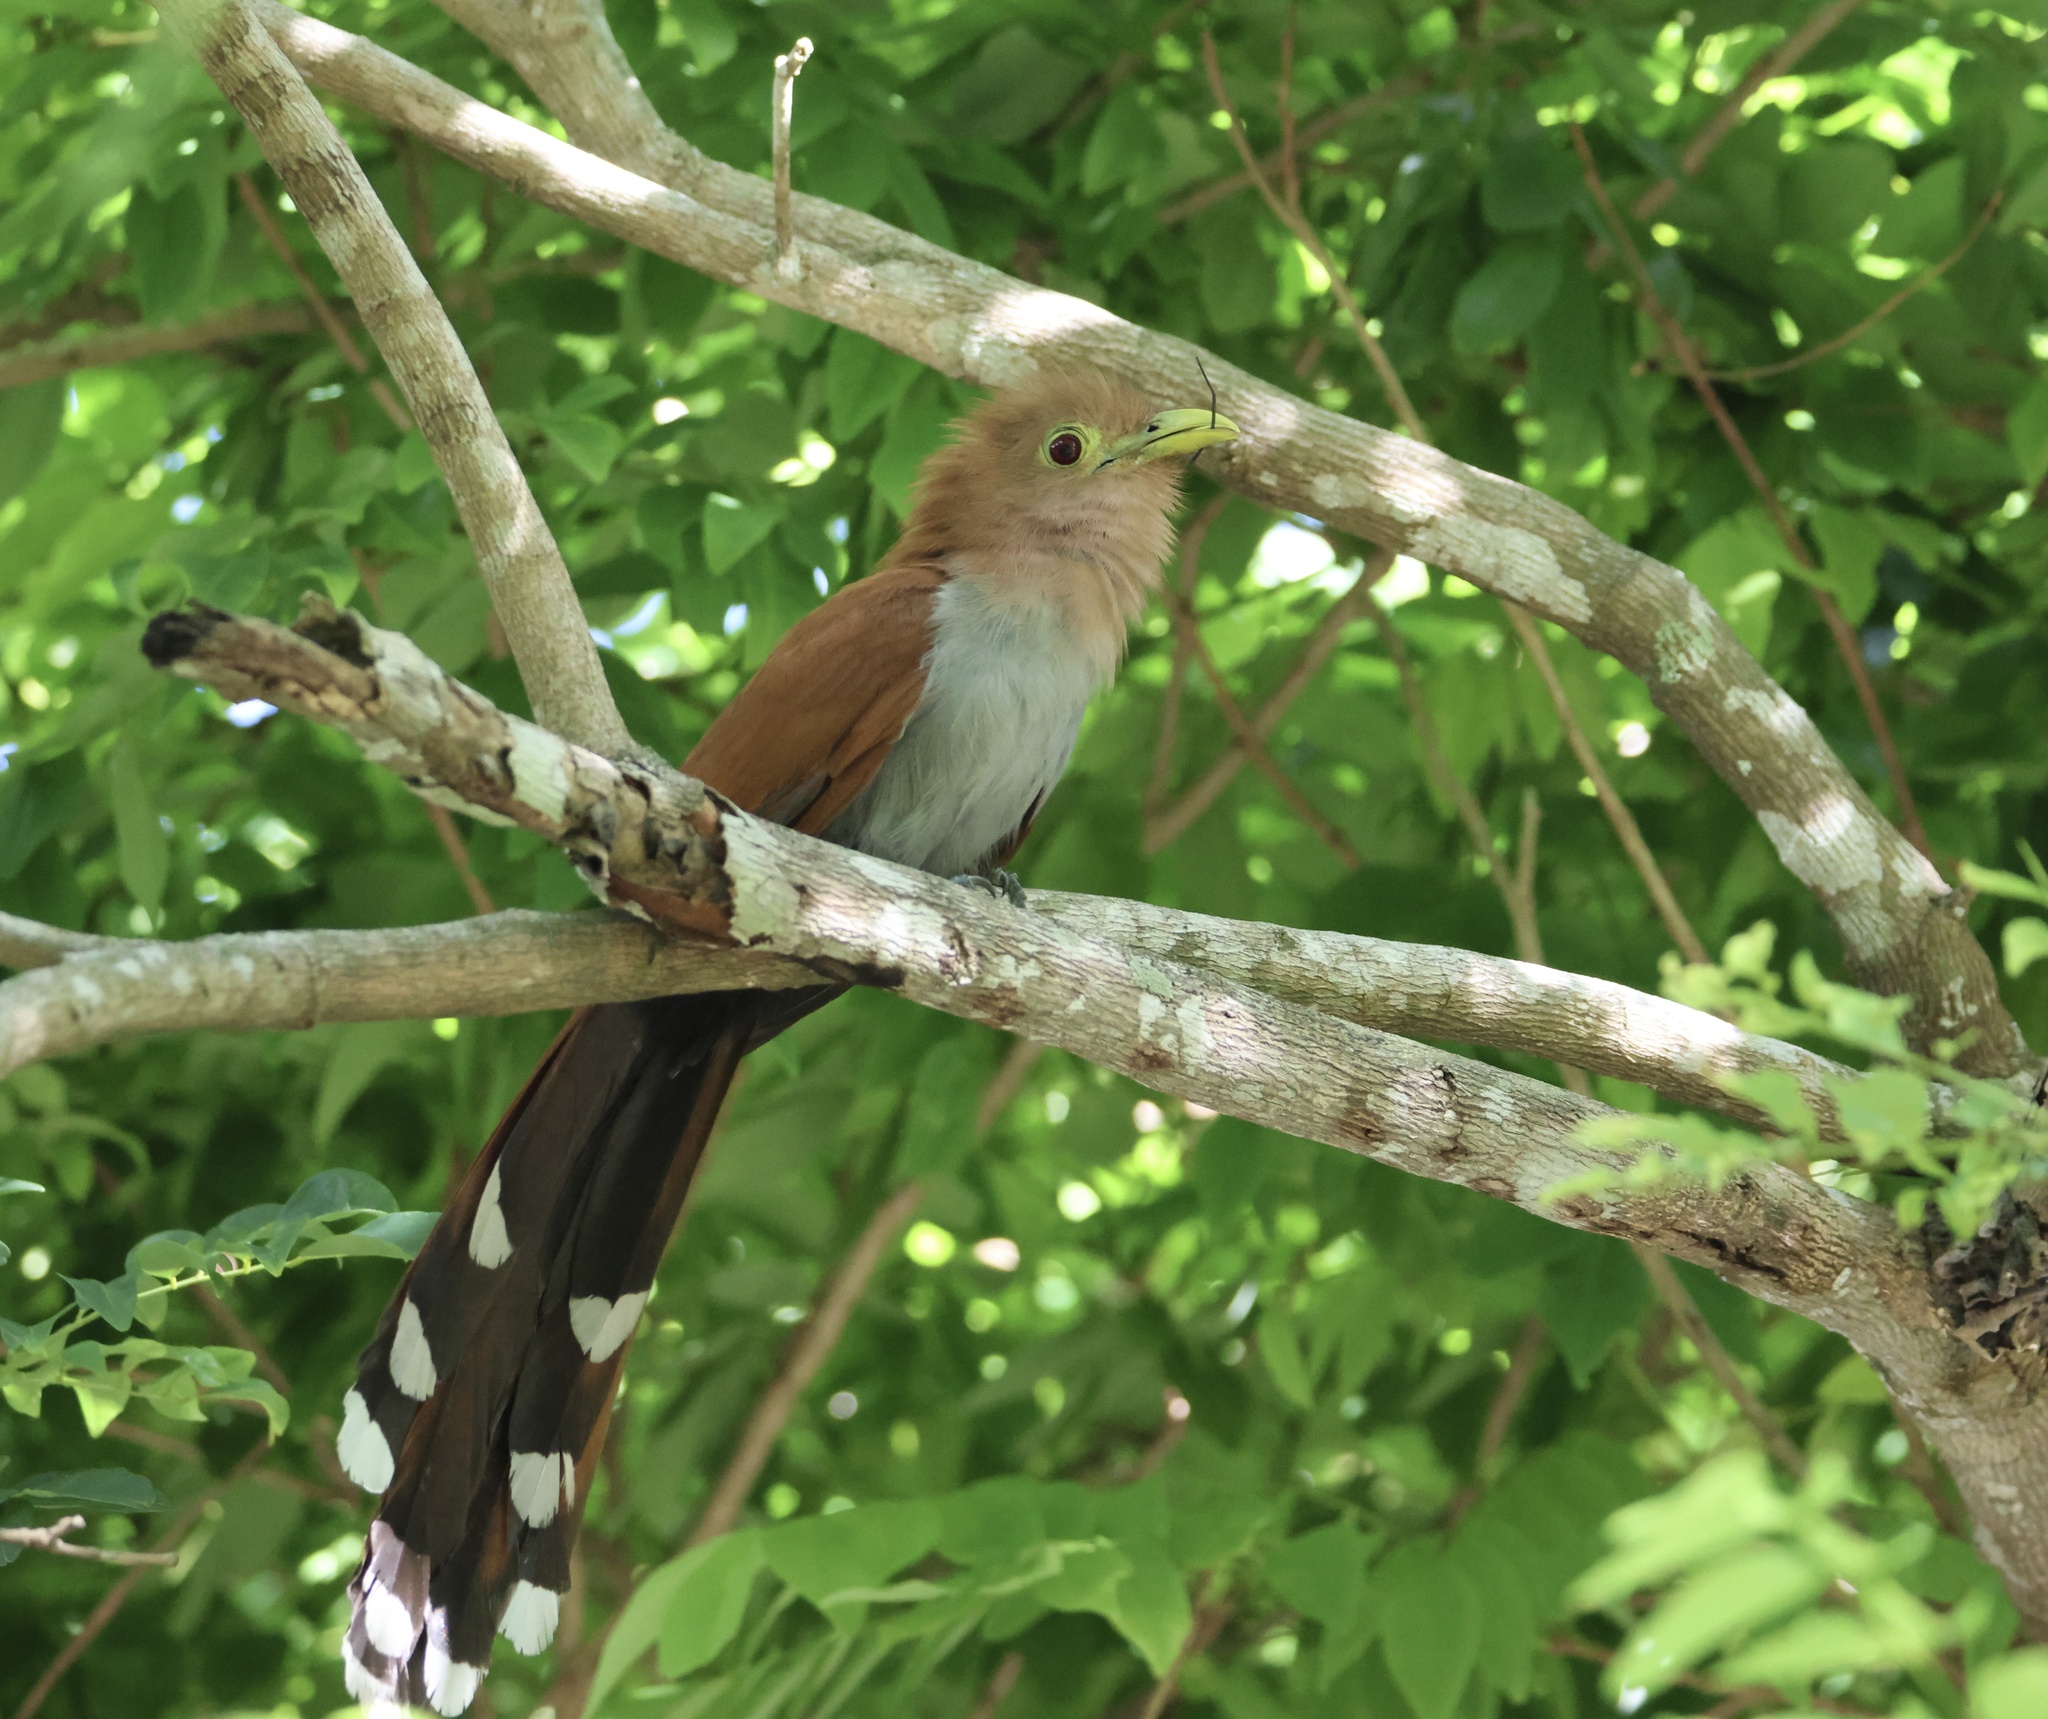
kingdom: Animalia
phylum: Chordata
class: Aves
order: Cuculiformes
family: Cuculidae
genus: Piaya
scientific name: Piaya cayana
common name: Squirrel cuckoo
